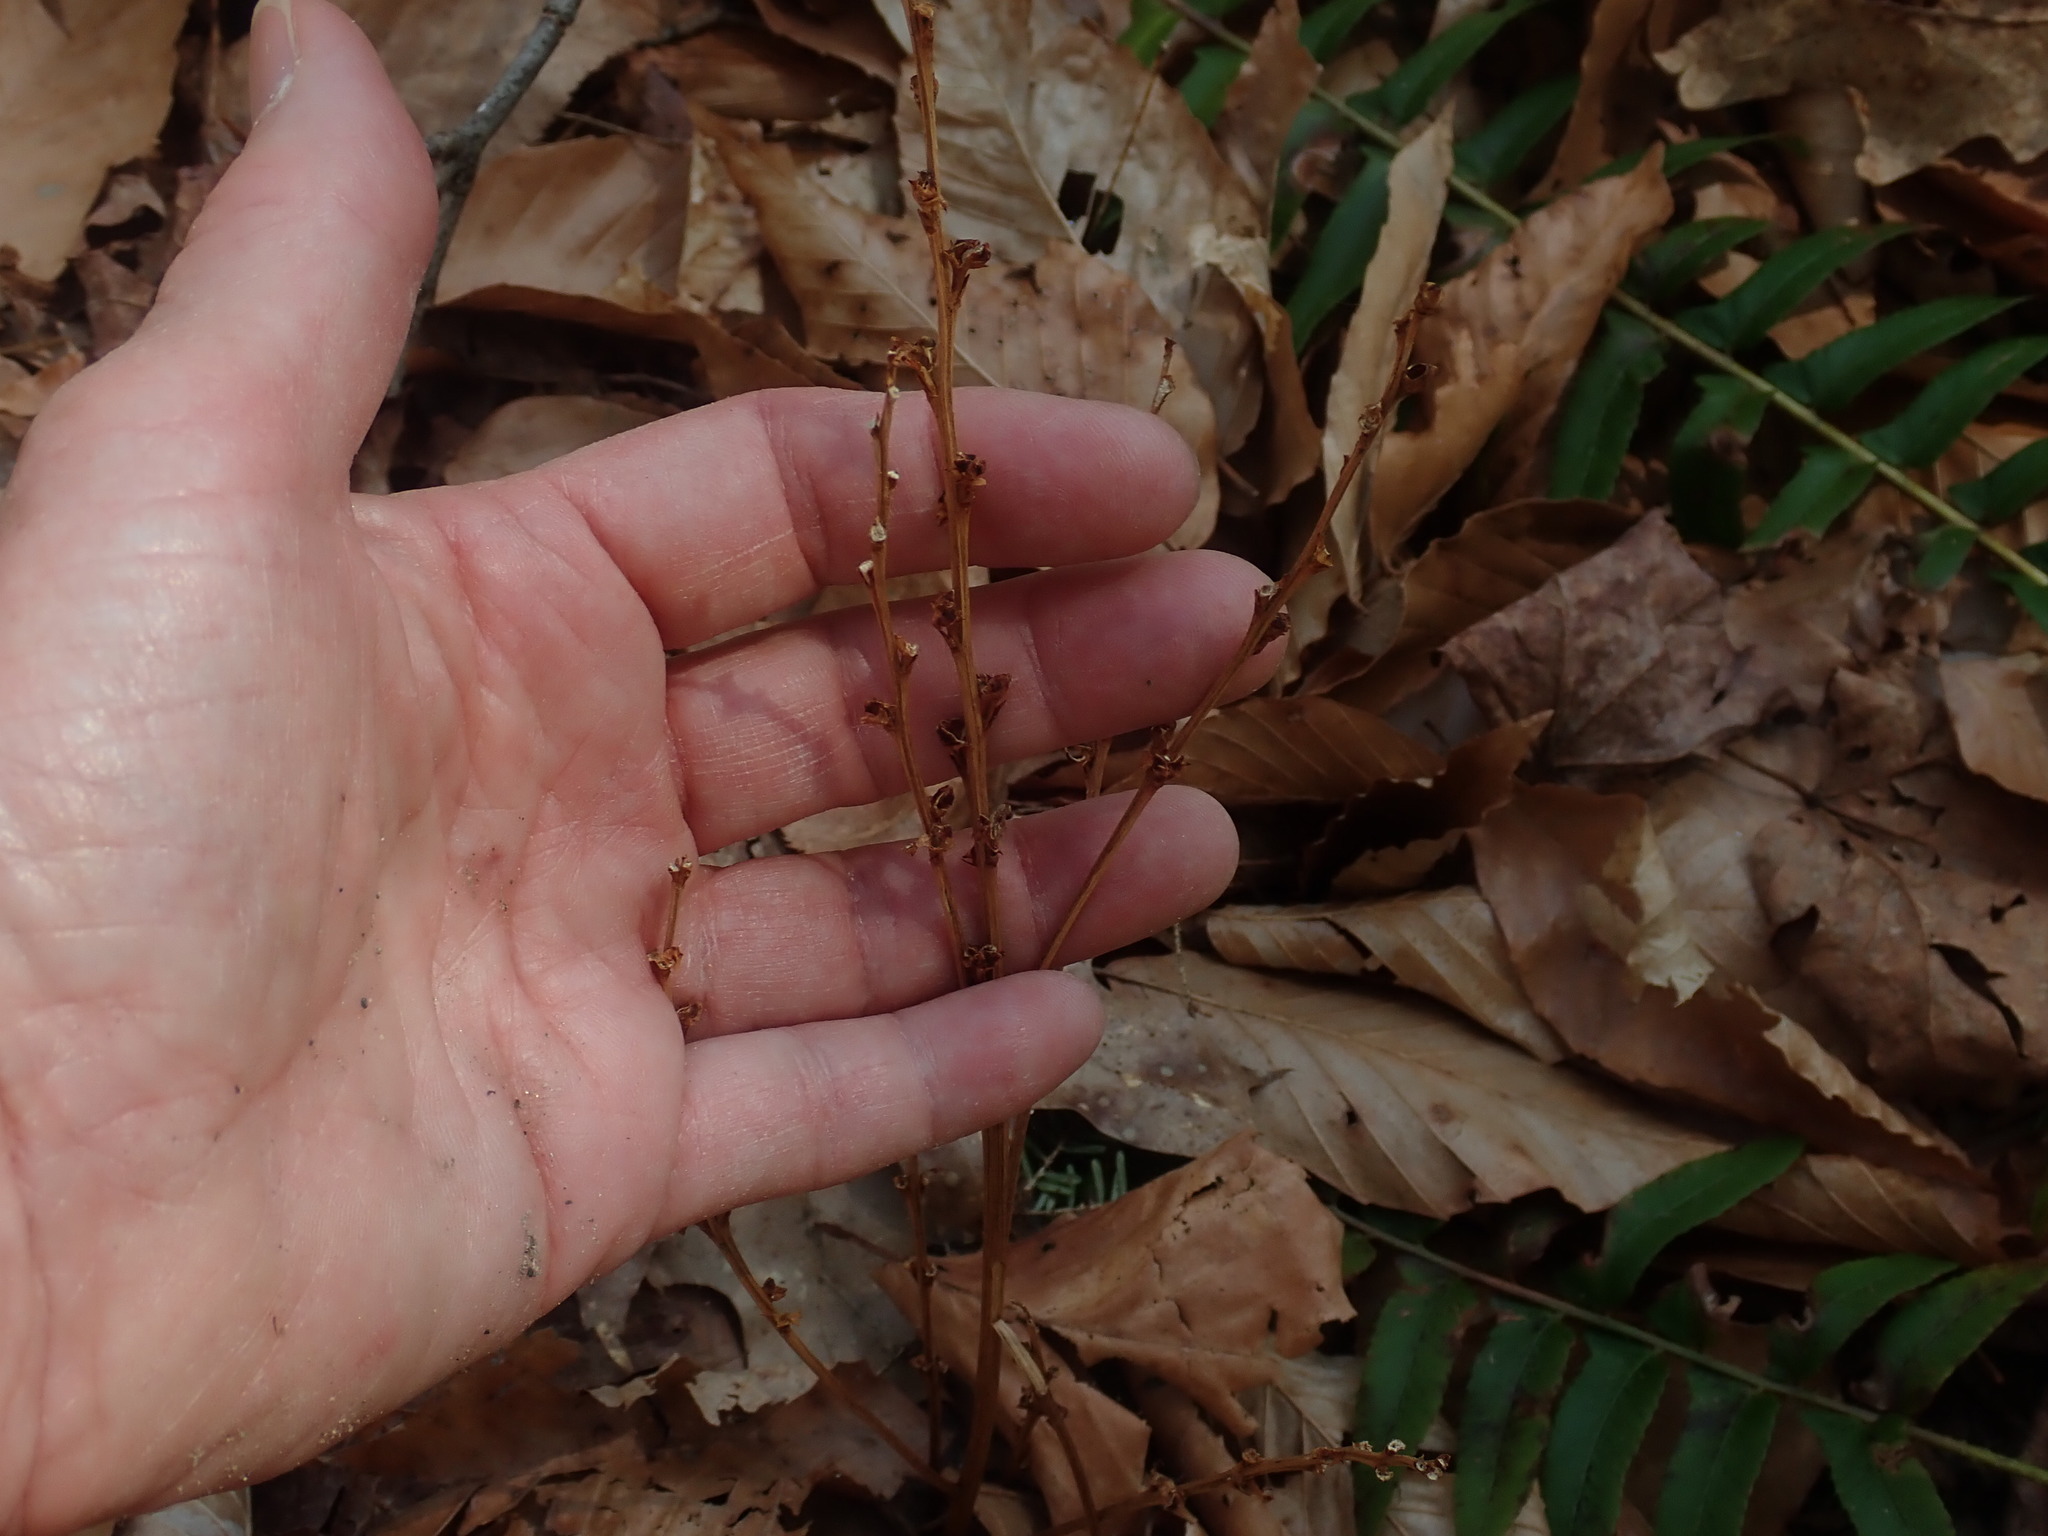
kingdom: Plantae
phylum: Tracheophyta
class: Magnoliopsida
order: Lamiales
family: Orobanchaceae
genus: Epifagus
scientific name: Epifagus virginiana
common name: Beechdrops
